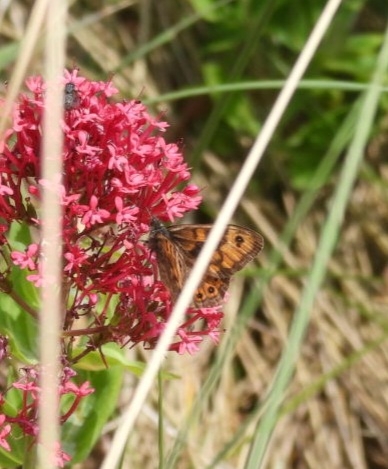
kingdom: Animalia
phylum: Arthropoda
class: Insecta
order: Lepidoptera
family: Nymphalidae
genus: Pararge
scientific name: Pararge Lasiommata megera
